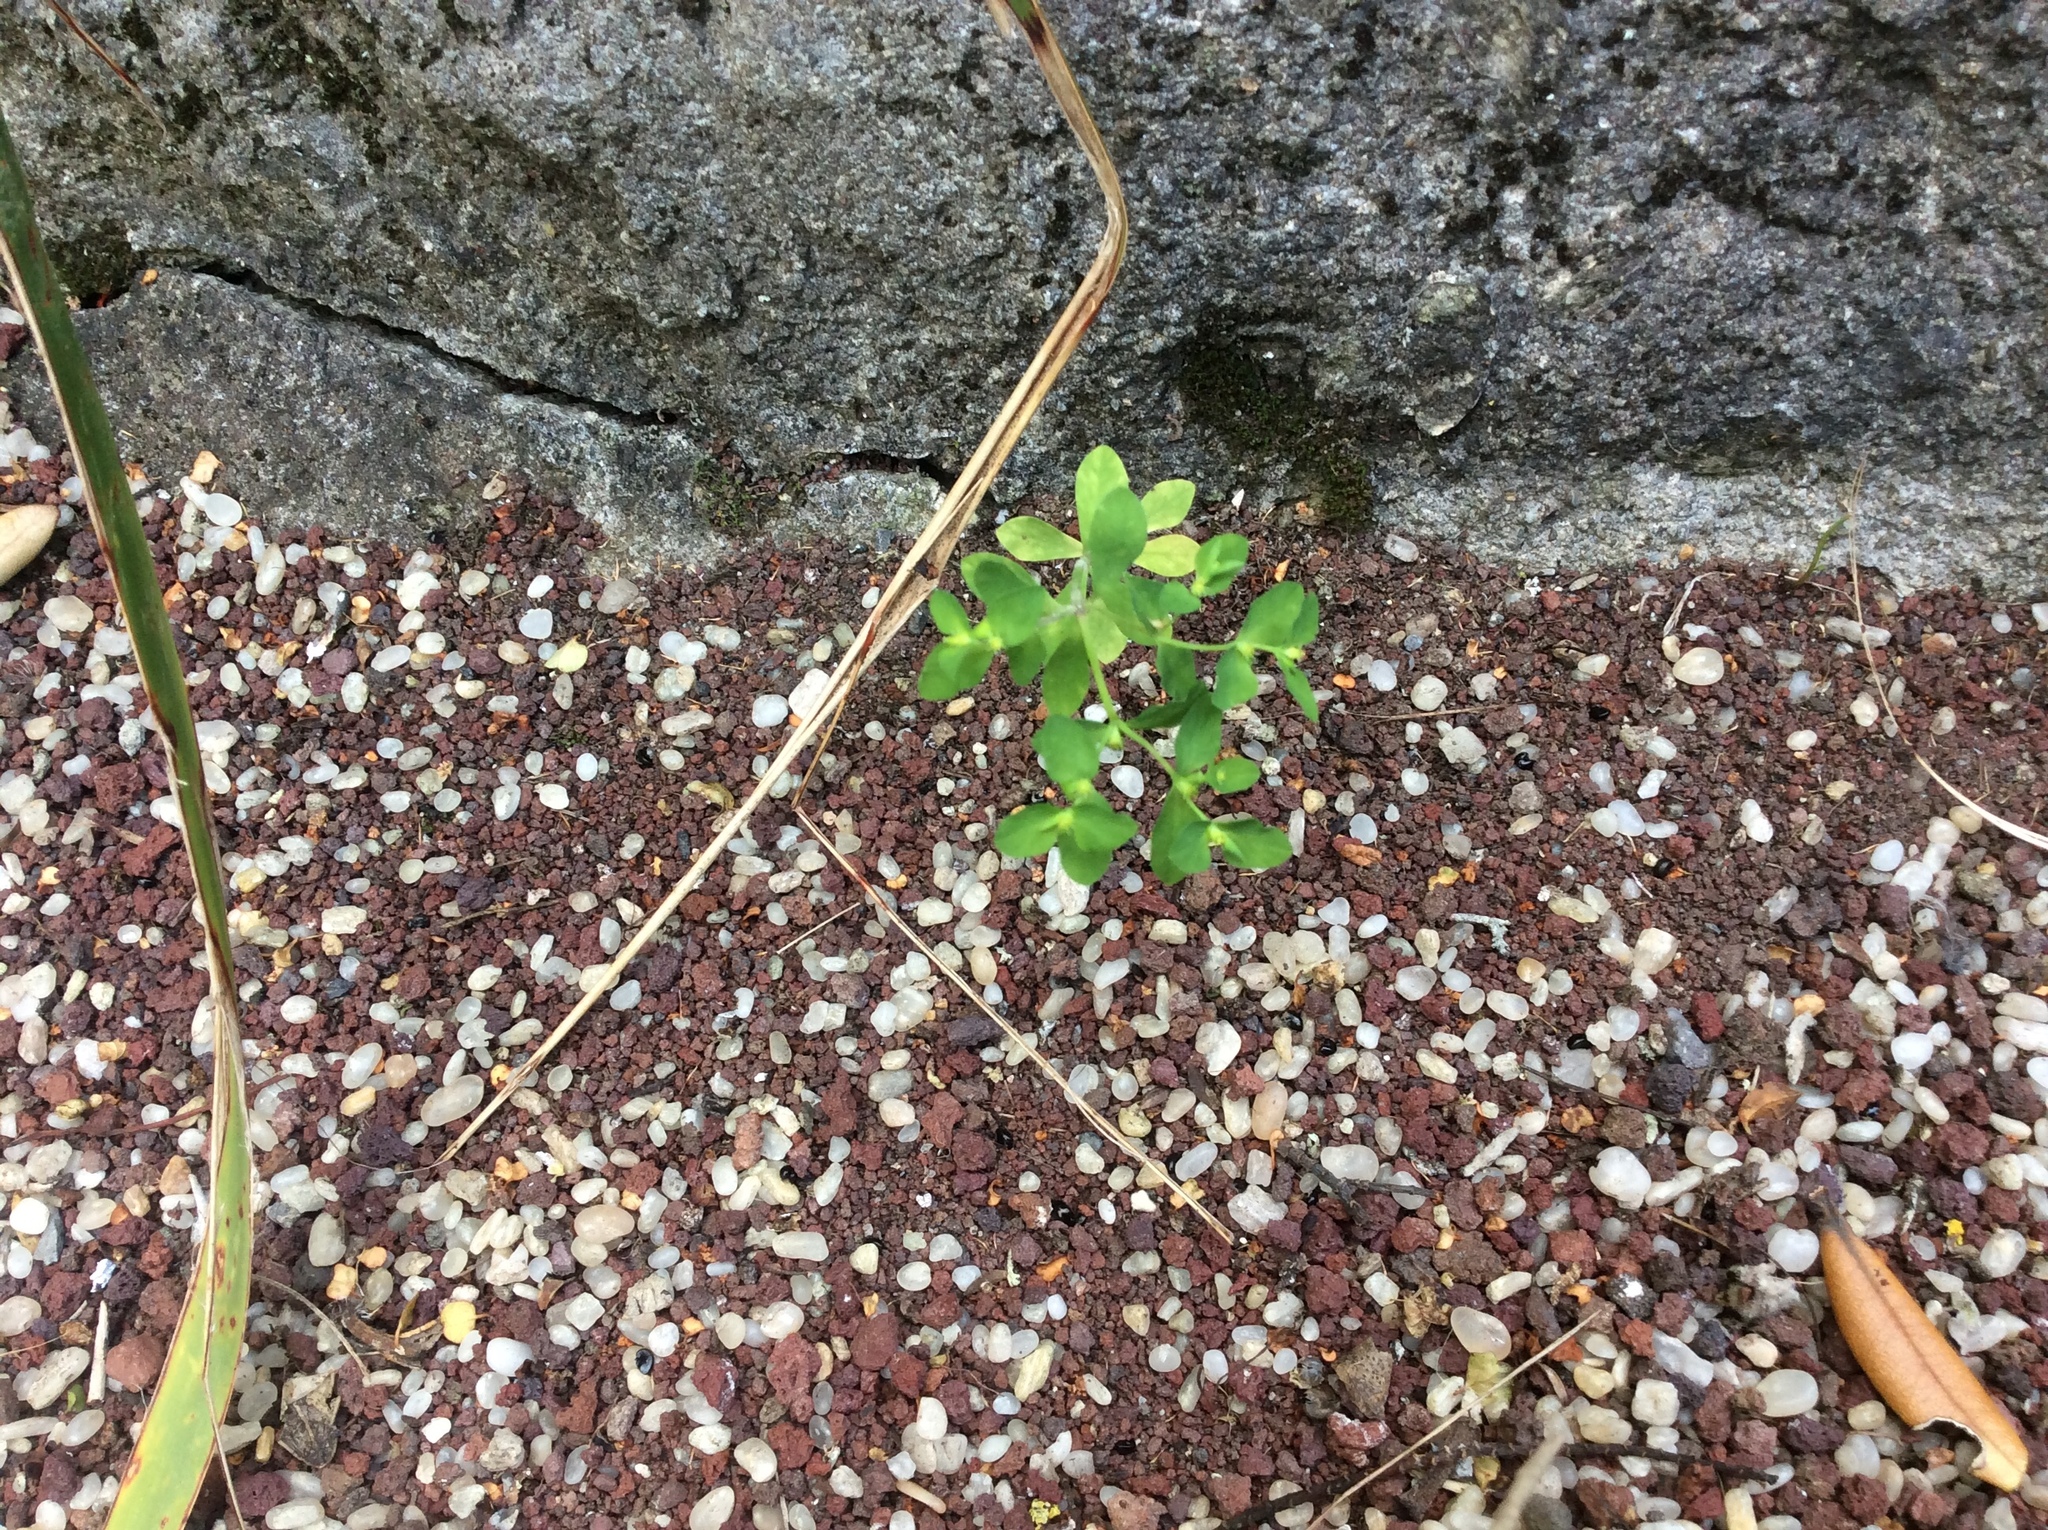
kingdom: Plantae
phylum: Tracheophyta
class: Magnoliopsida
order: Malpighiales
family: Euphorbiaceae
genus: Euphorbia
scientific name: Euphorbia peplus
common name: Petty spurge
